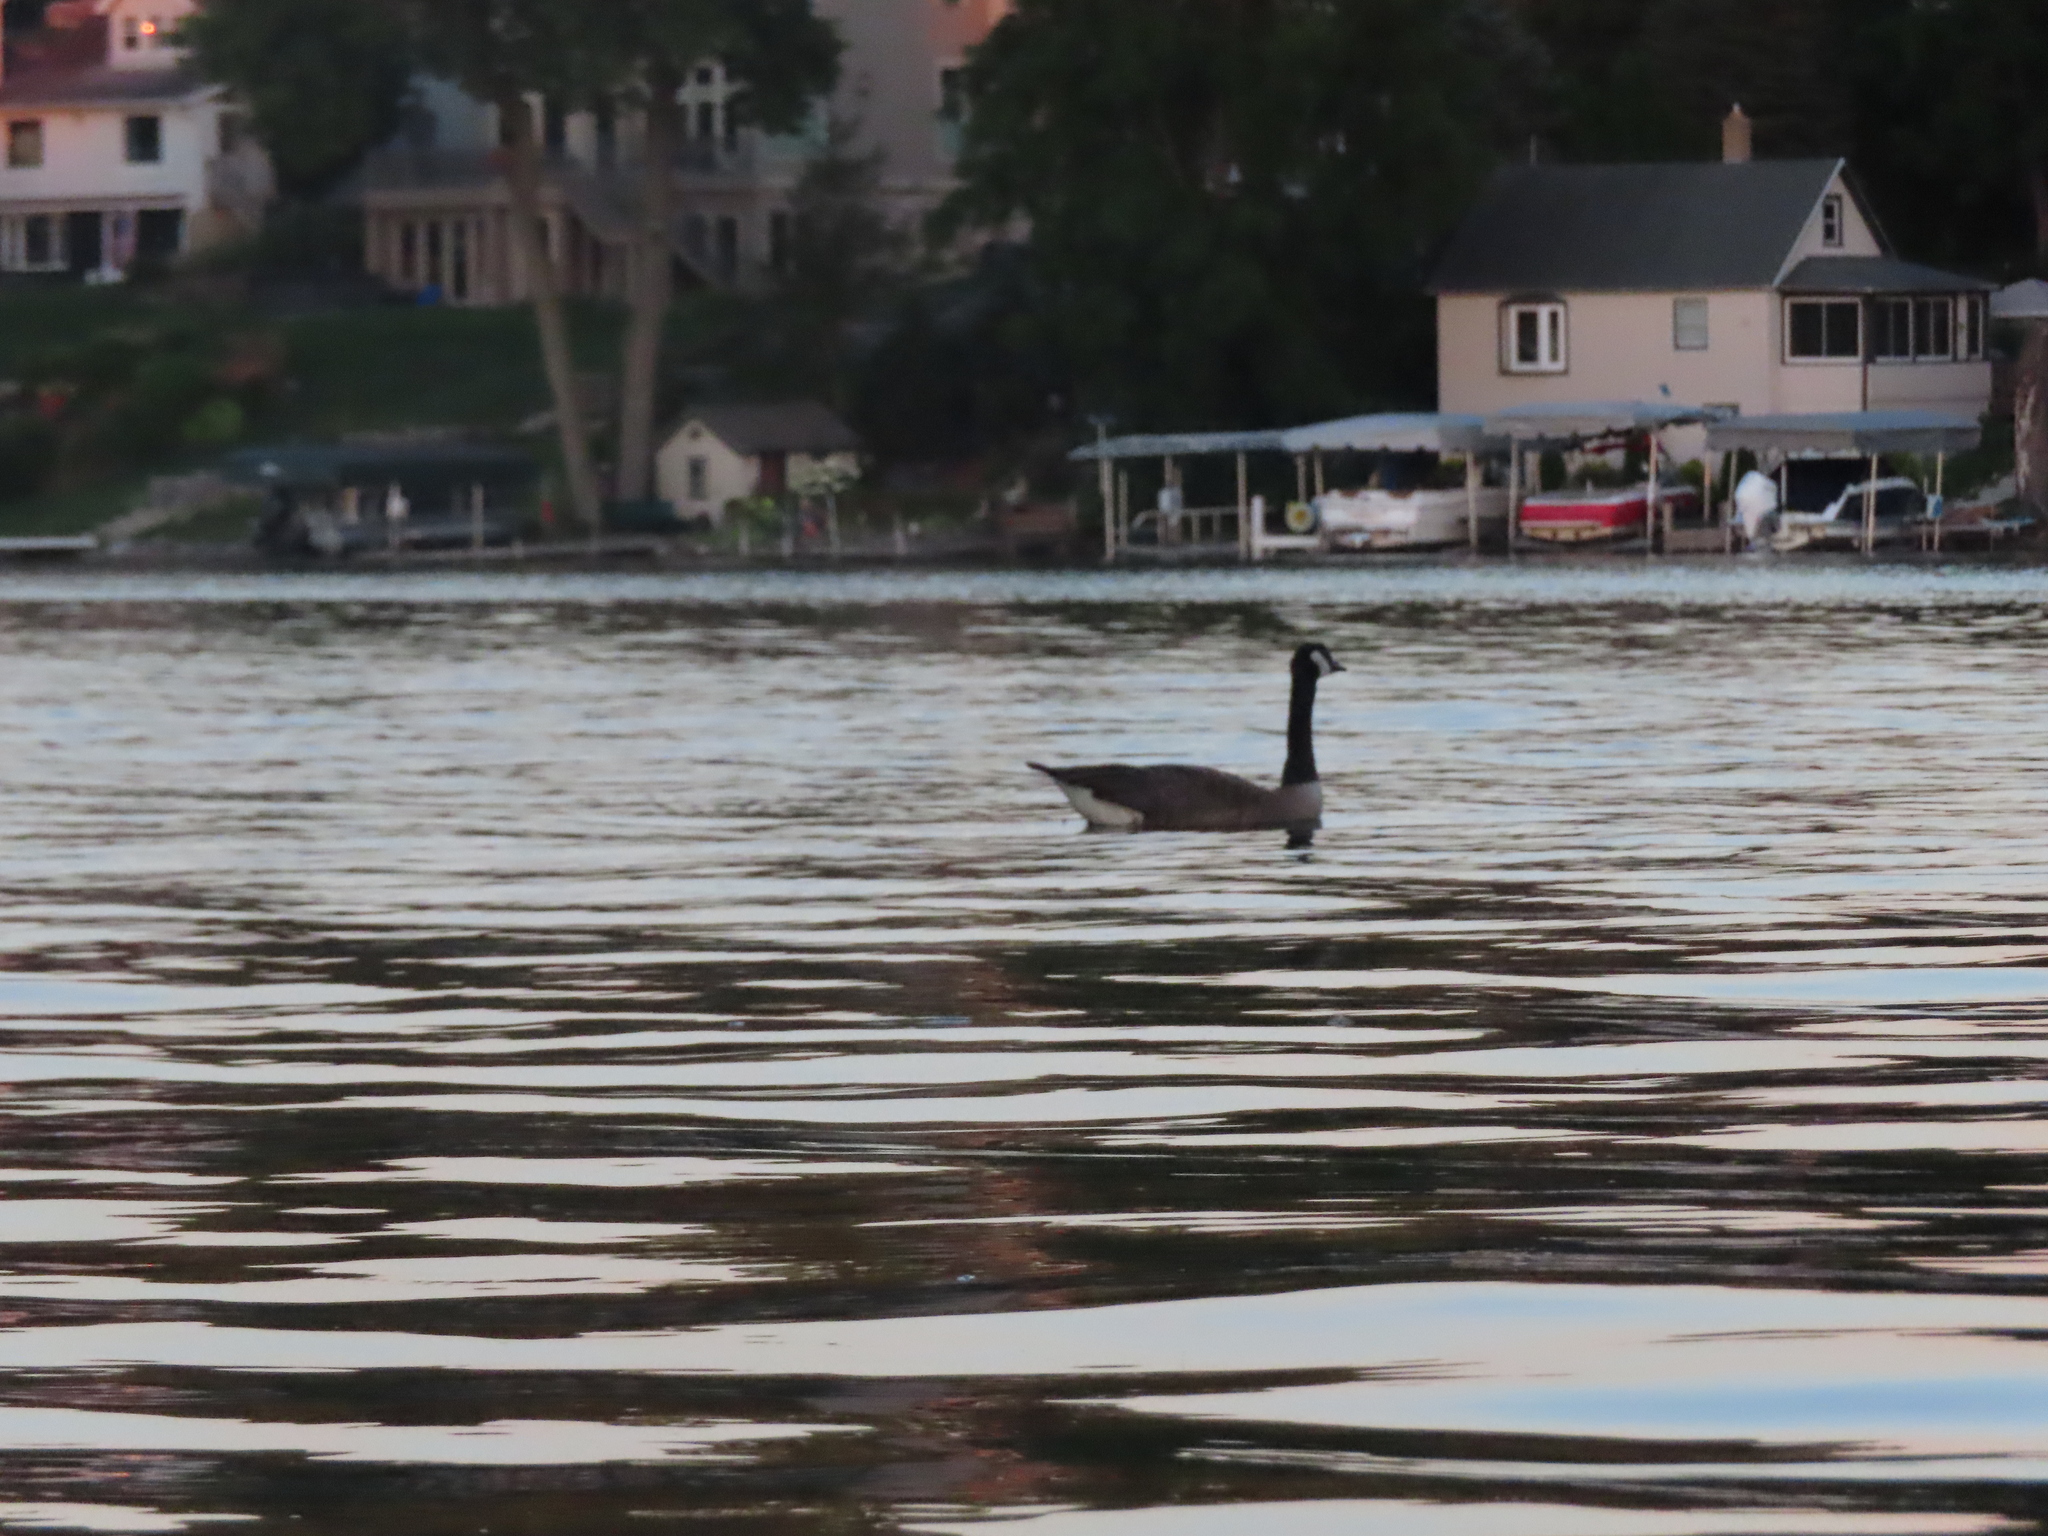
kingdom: Animalia
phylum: Chordata
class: Aves
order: Anseriformes
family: Anatidae
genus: Branta
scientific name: Branta canadensis
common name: Canada goose
